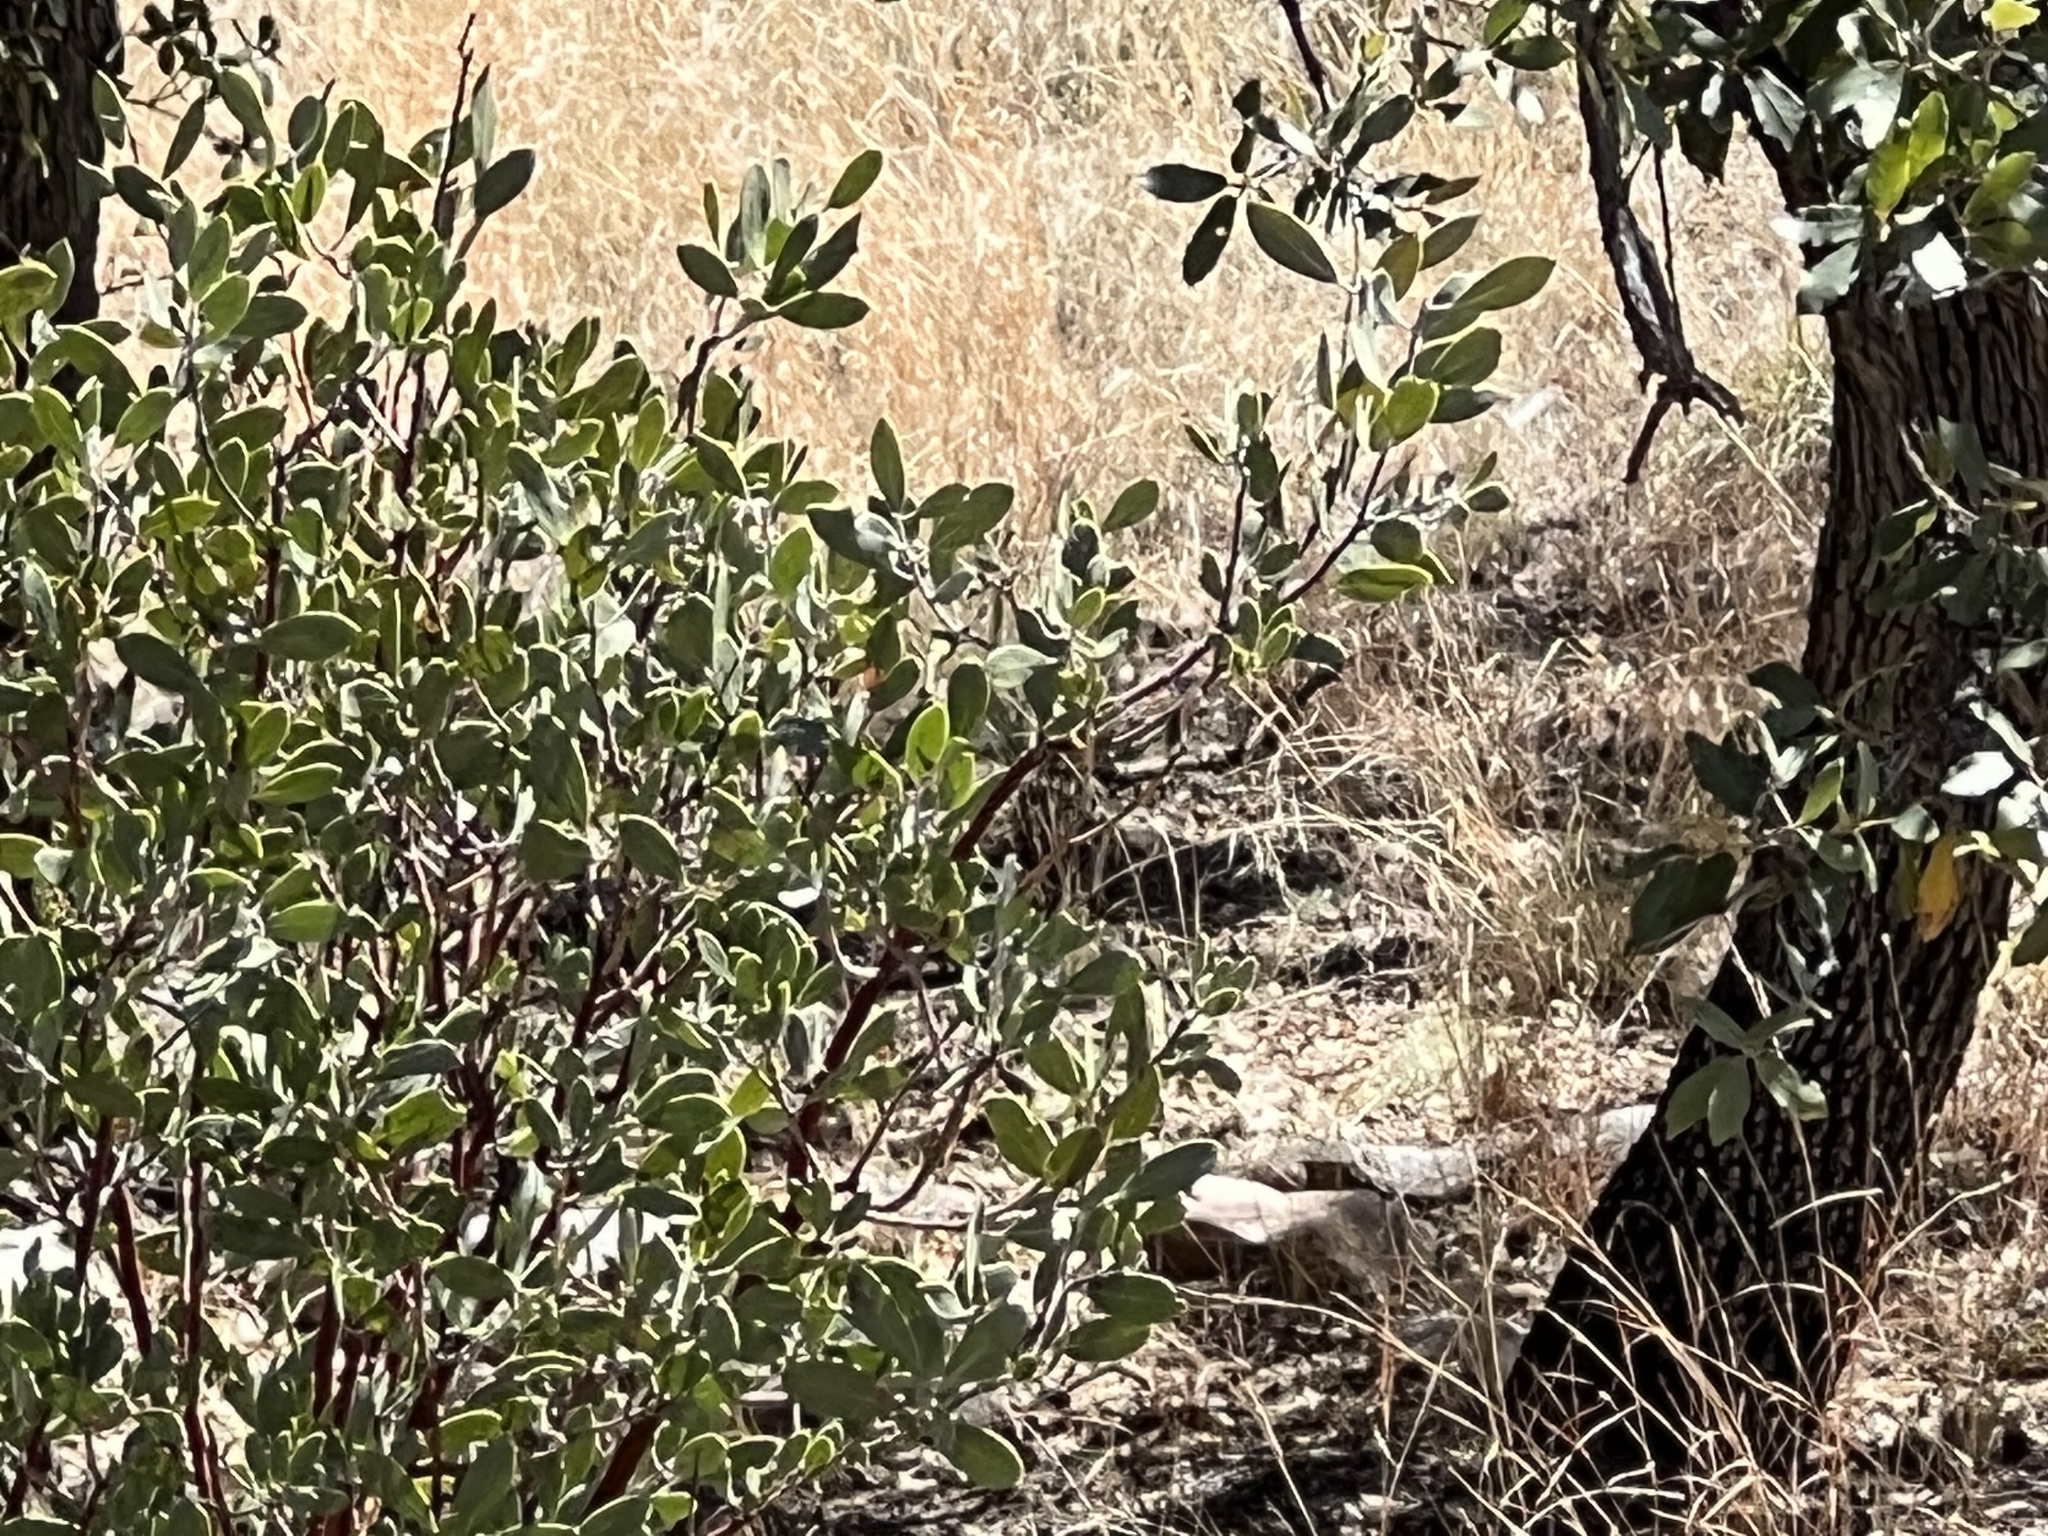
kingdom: Plantae
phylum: Tracheophyta
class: Magnoliopsida
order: Ericales
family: Ericaceae
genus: Arctostaphylos
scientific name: Arctostaphylos pungens
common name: Mexican manzanita
